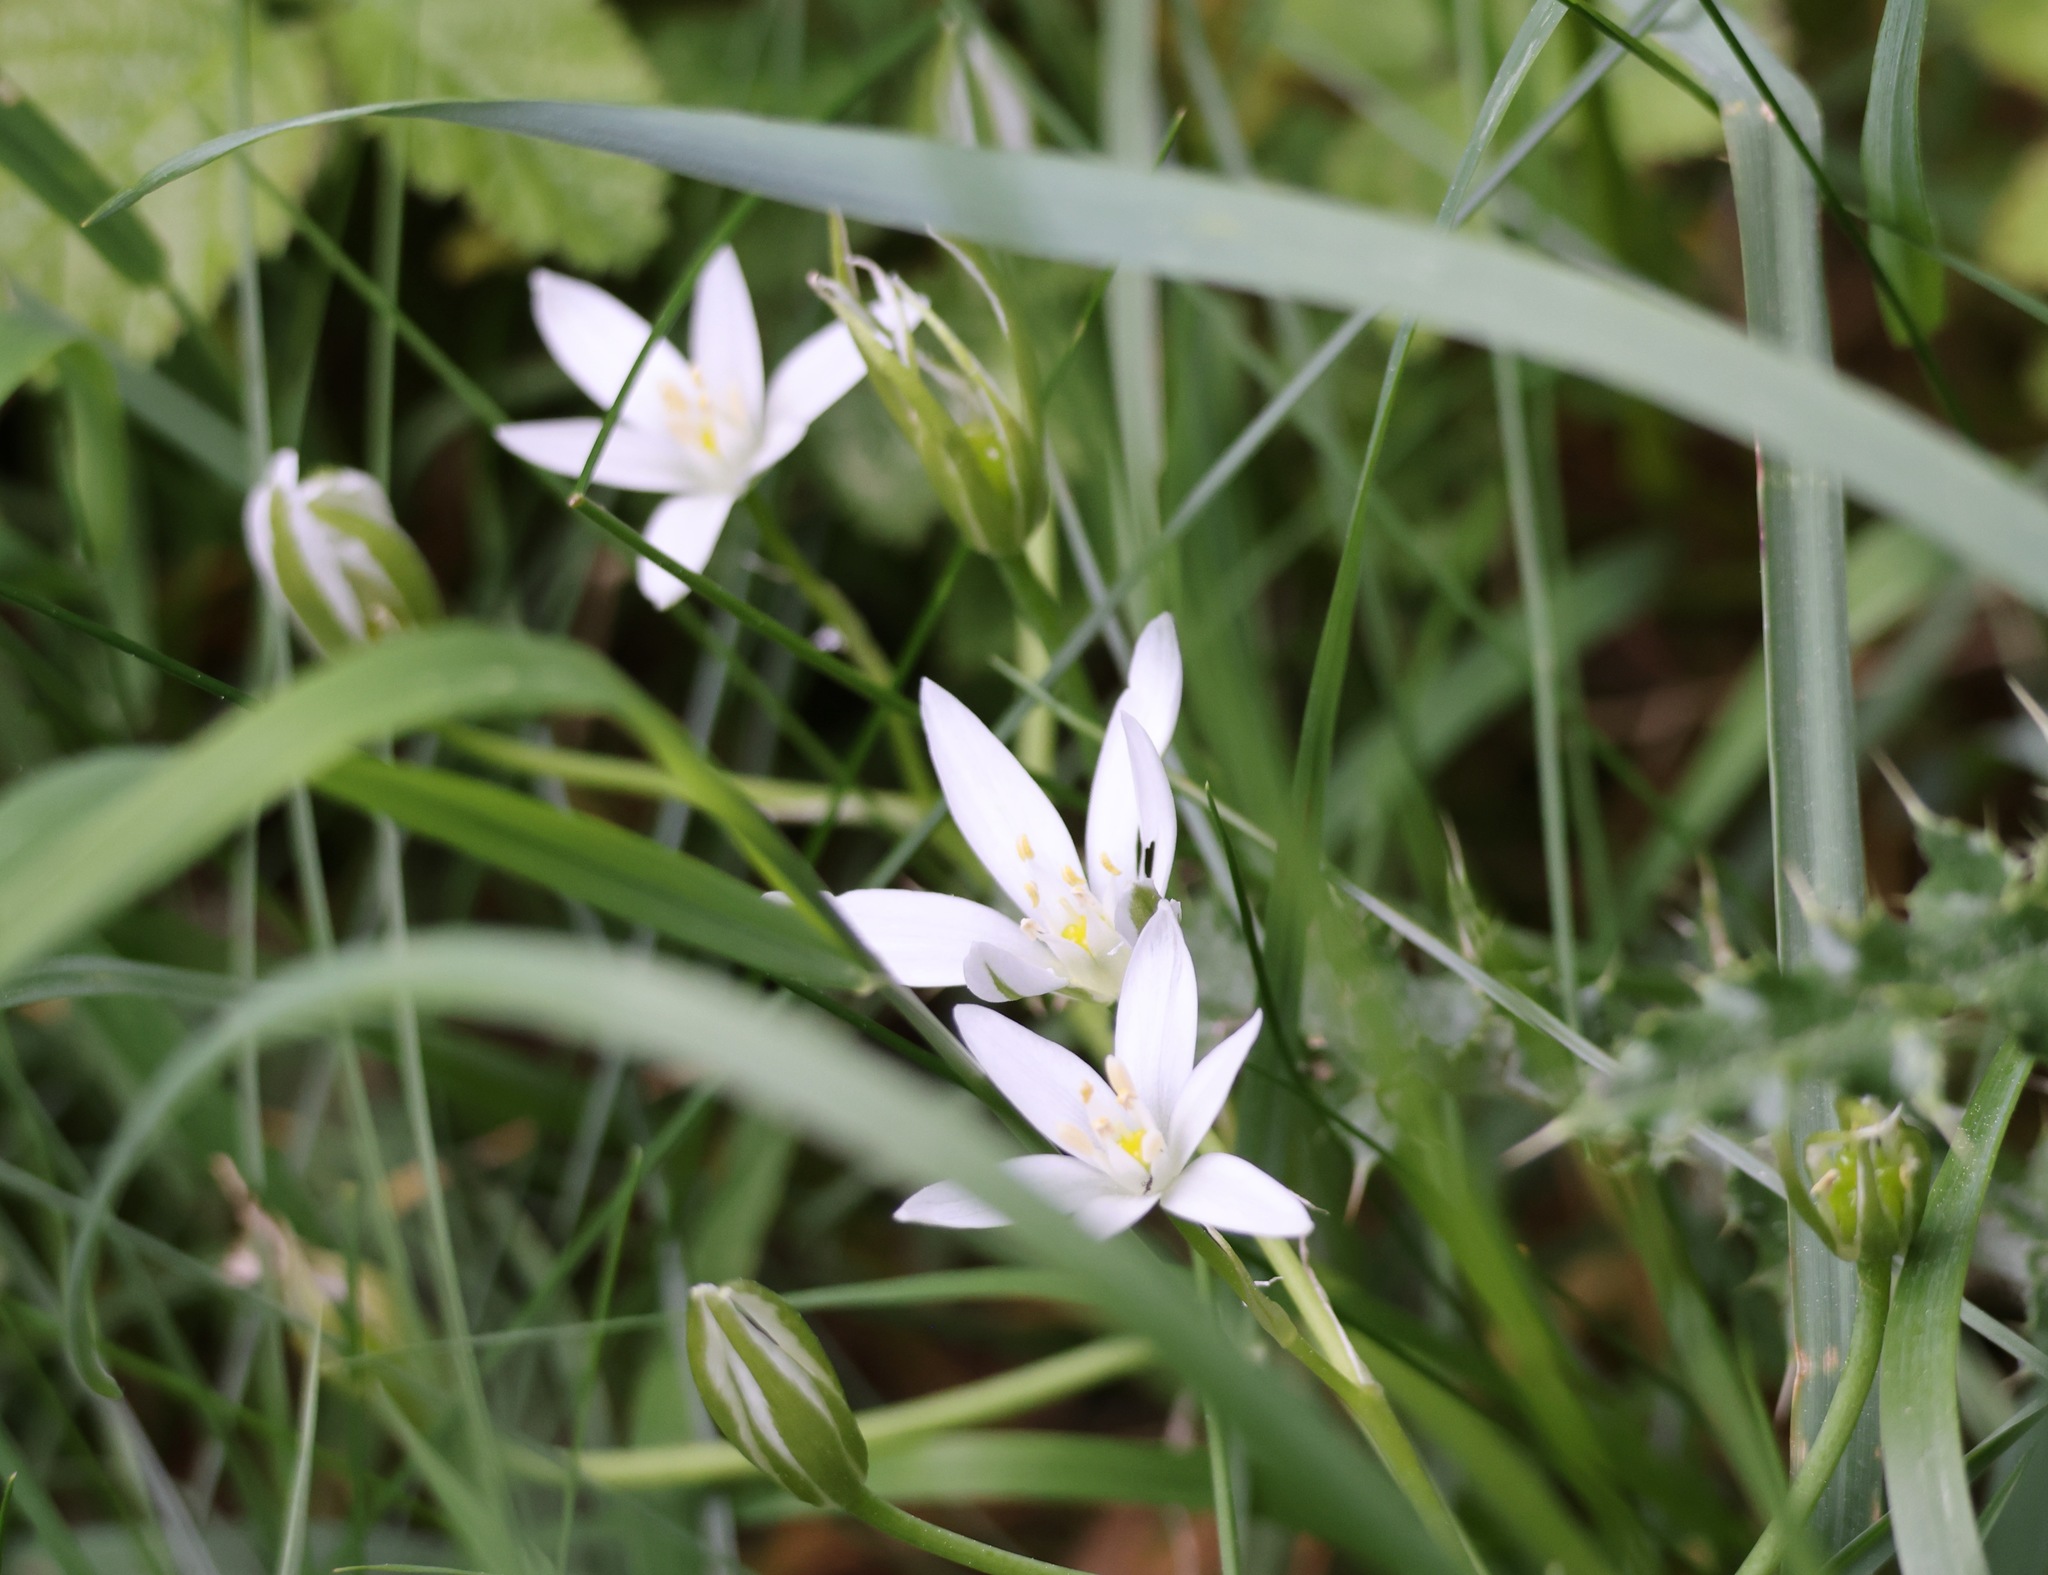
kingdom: Plantae
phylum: Tracheophyta
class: Liliopsida
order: Asparagales
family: Asparagaceae
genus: Ornithogalum
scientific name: Ornithogalum umbellatum
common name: Garden star-of-bethlehem
